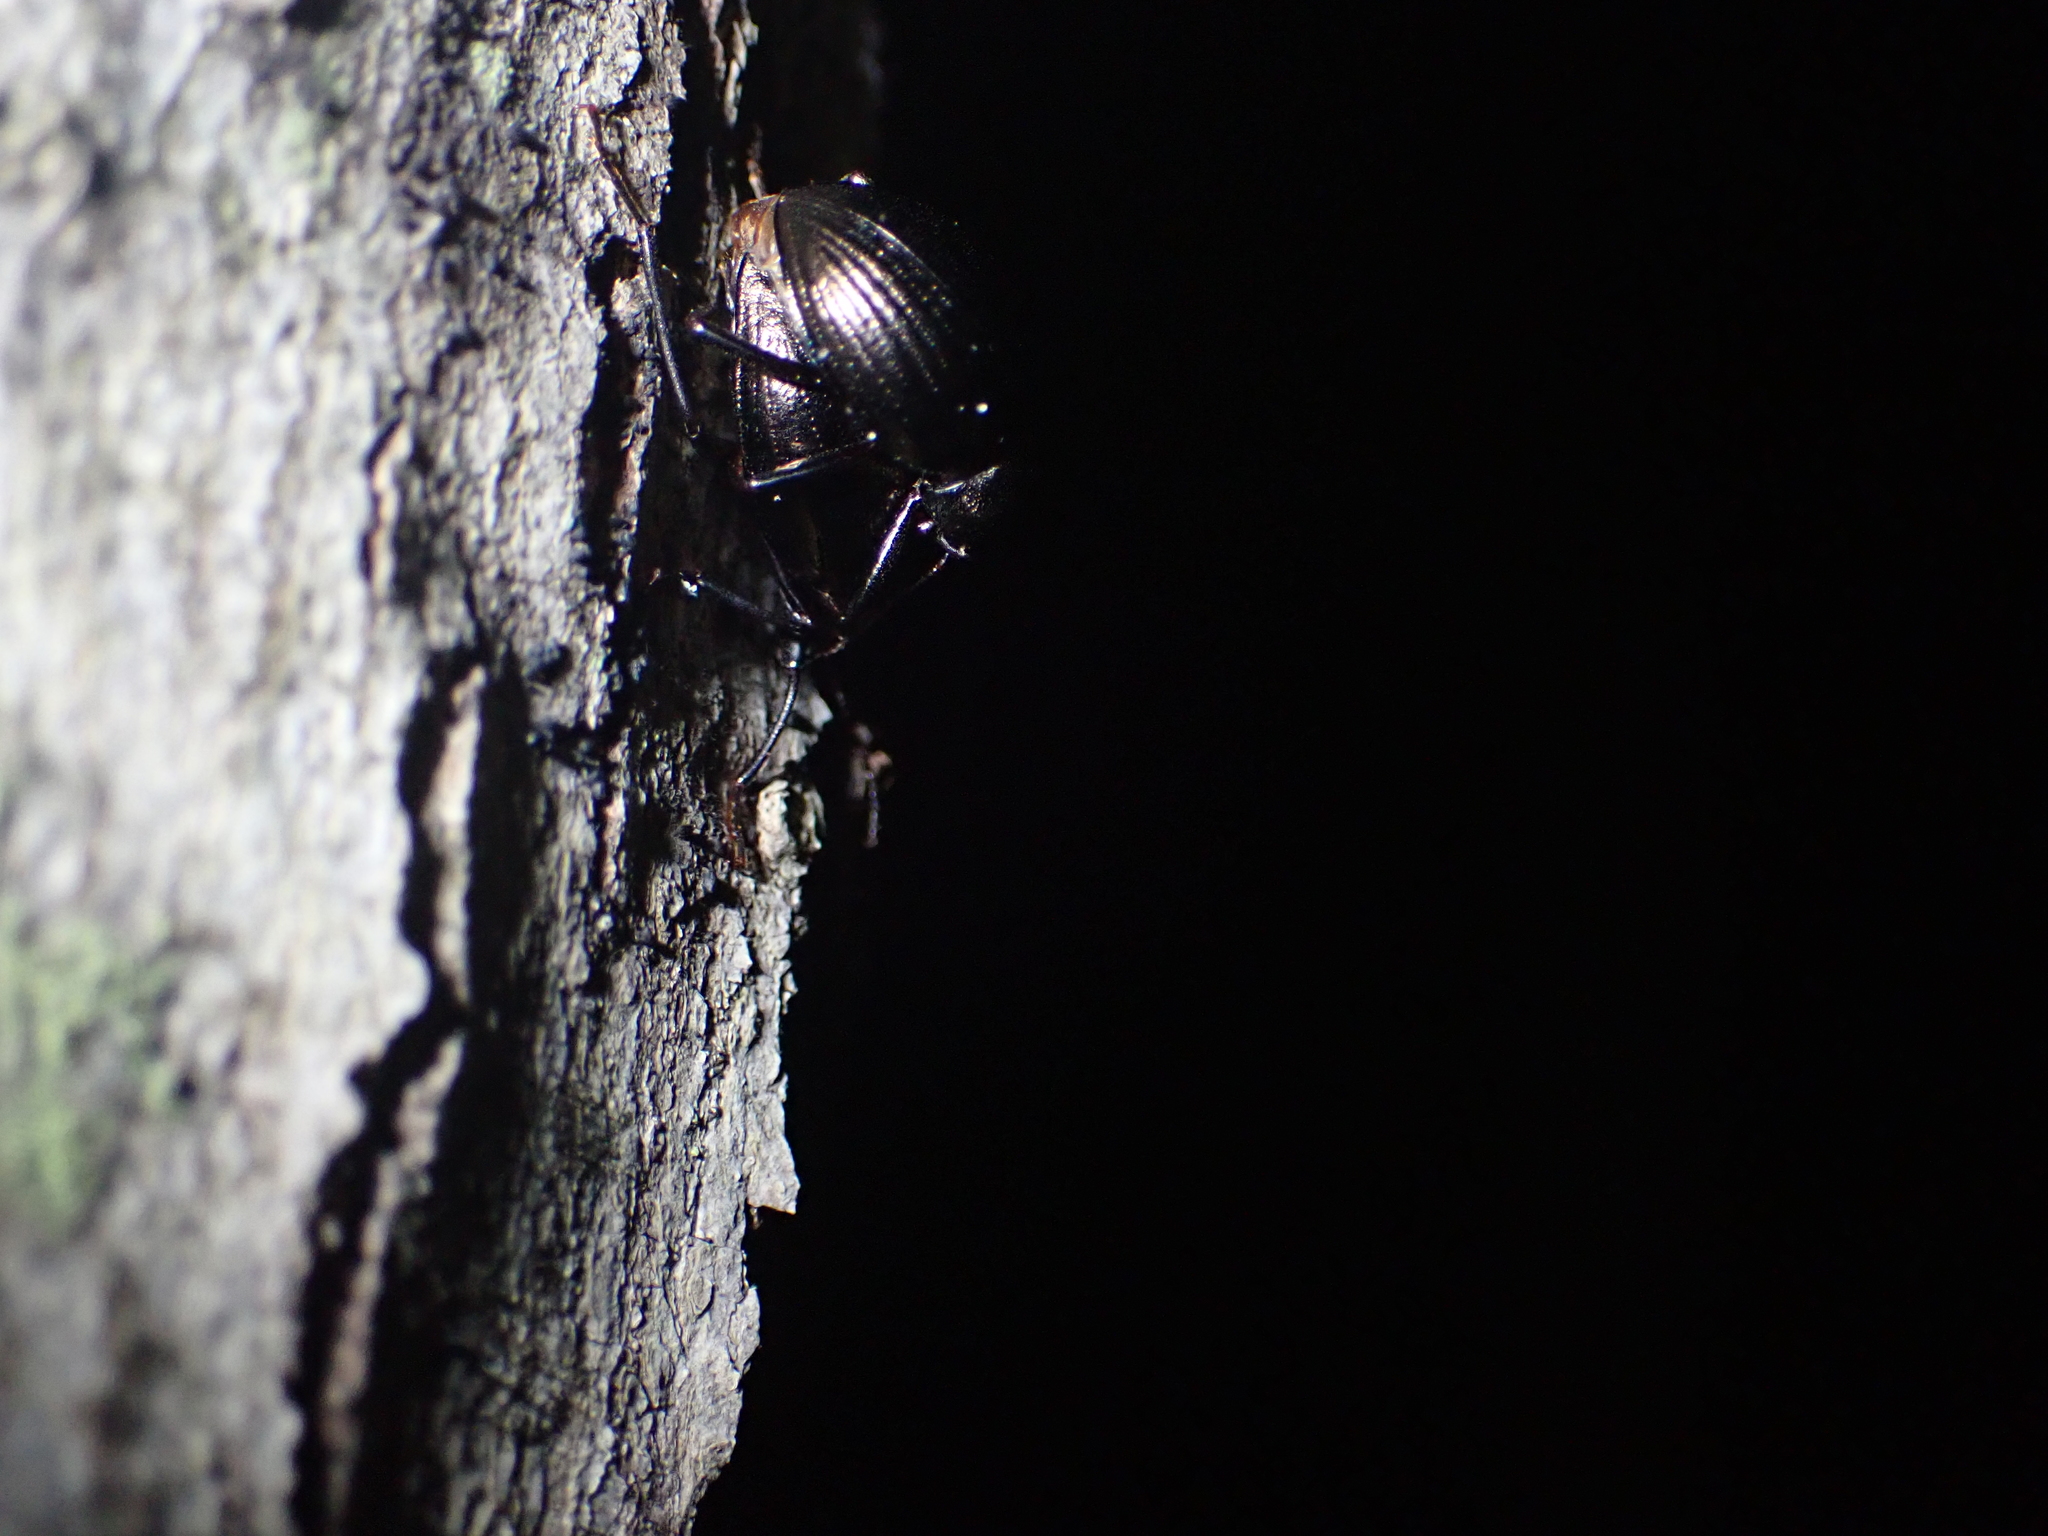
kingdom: Animalia
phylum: Arthropoda
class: Insecta
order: Coleoptera
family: Tenebrionidae
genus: Meracantha
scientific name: Meracantha contracta
